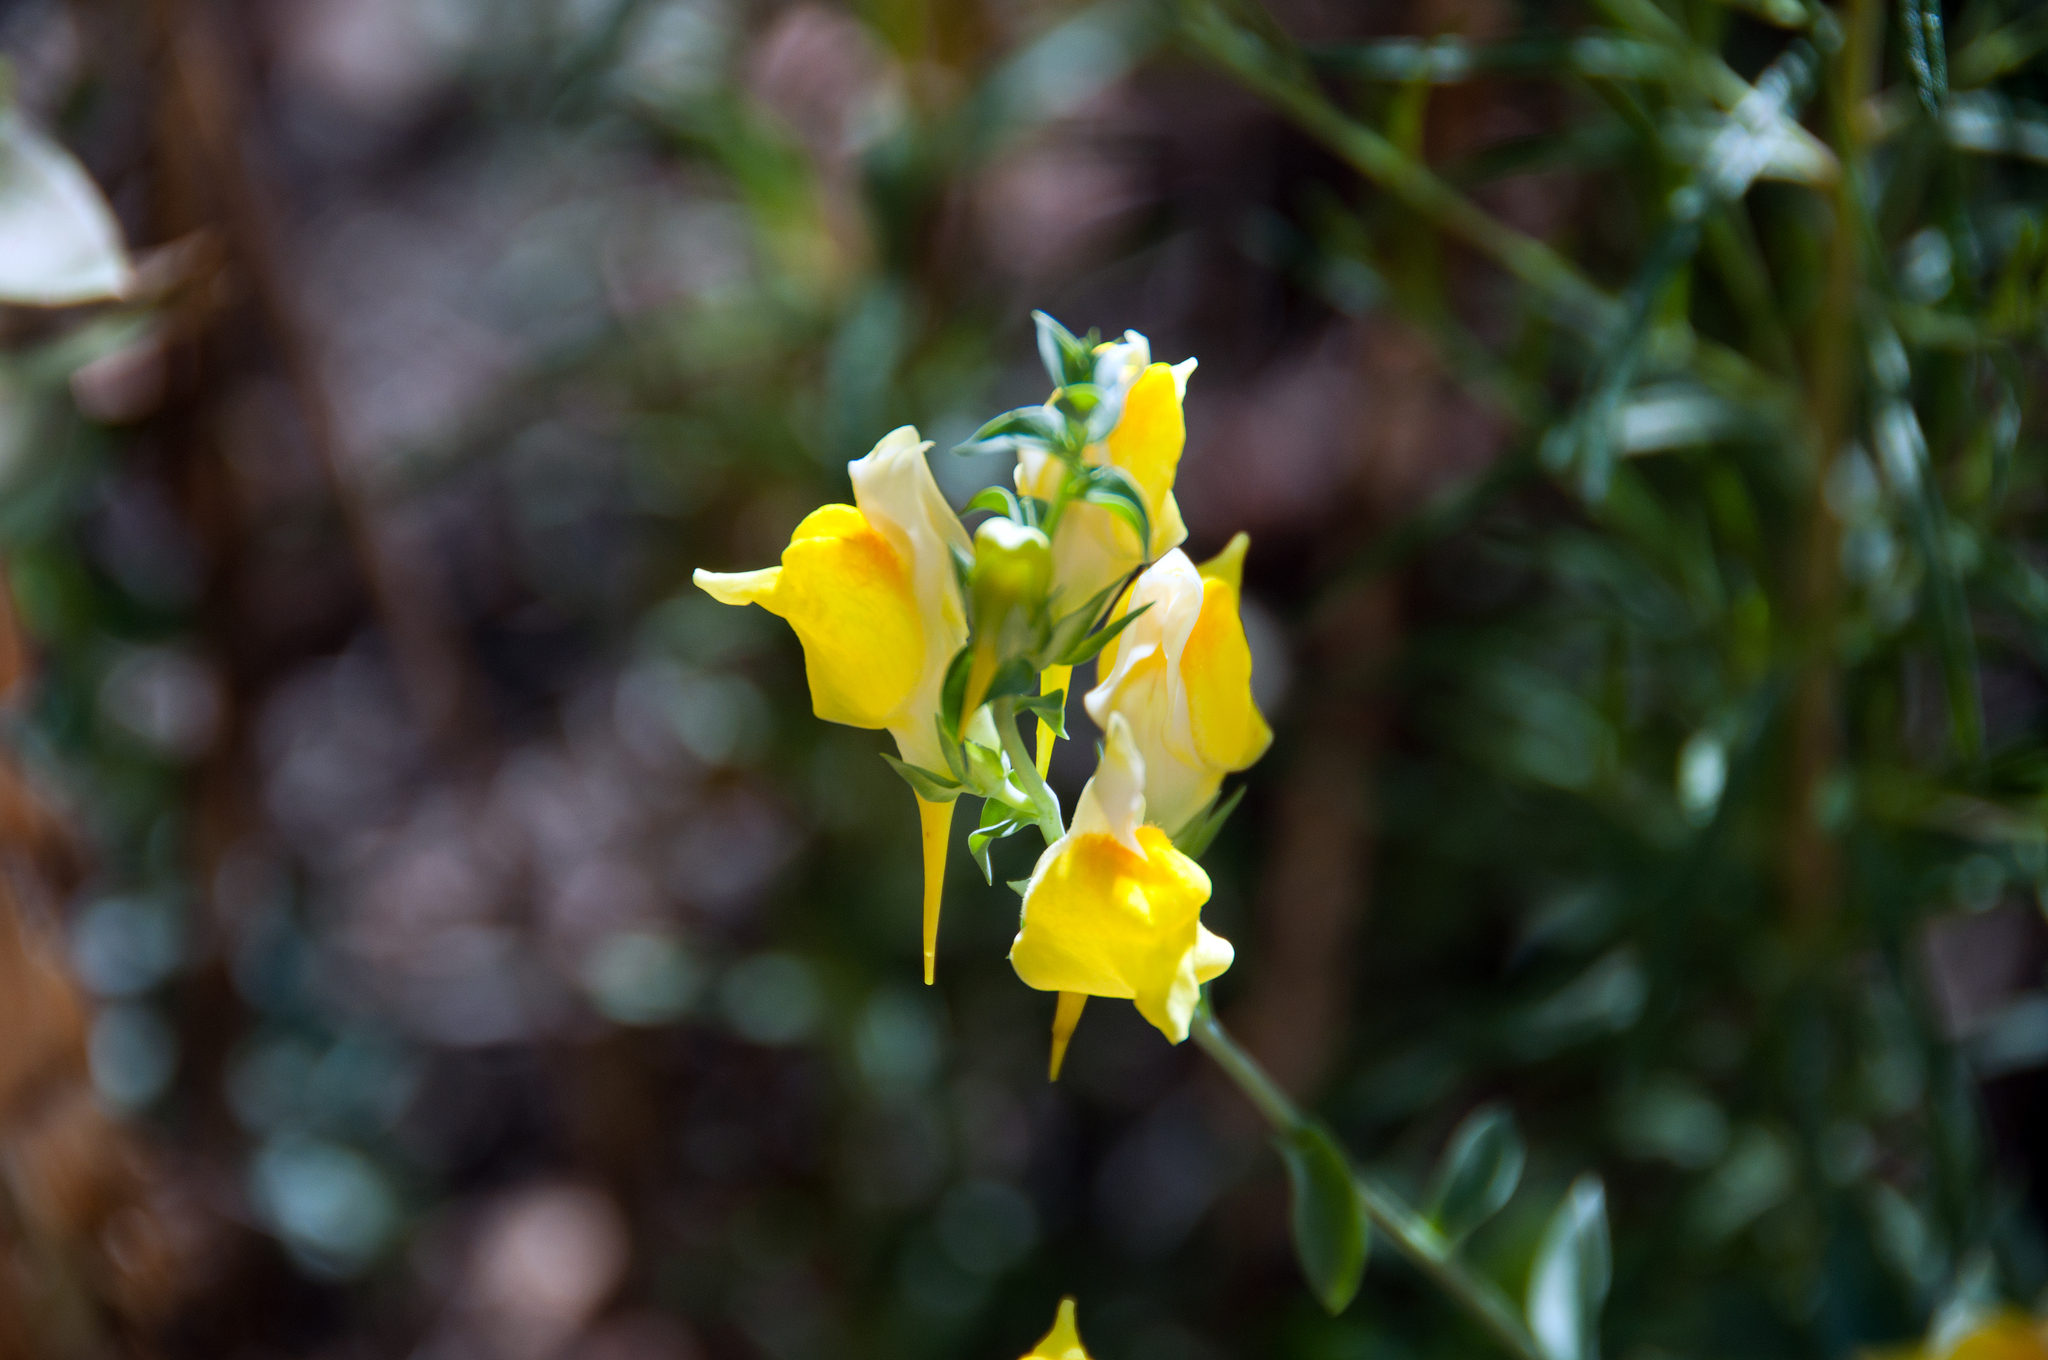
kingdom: Plantae
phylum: Tracheophyta
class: Magnoliopsida
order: Lamiales
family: Plantaginaceae
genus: Linaria
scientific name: Linaria dalmatica
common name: Dalmatian toadflax
